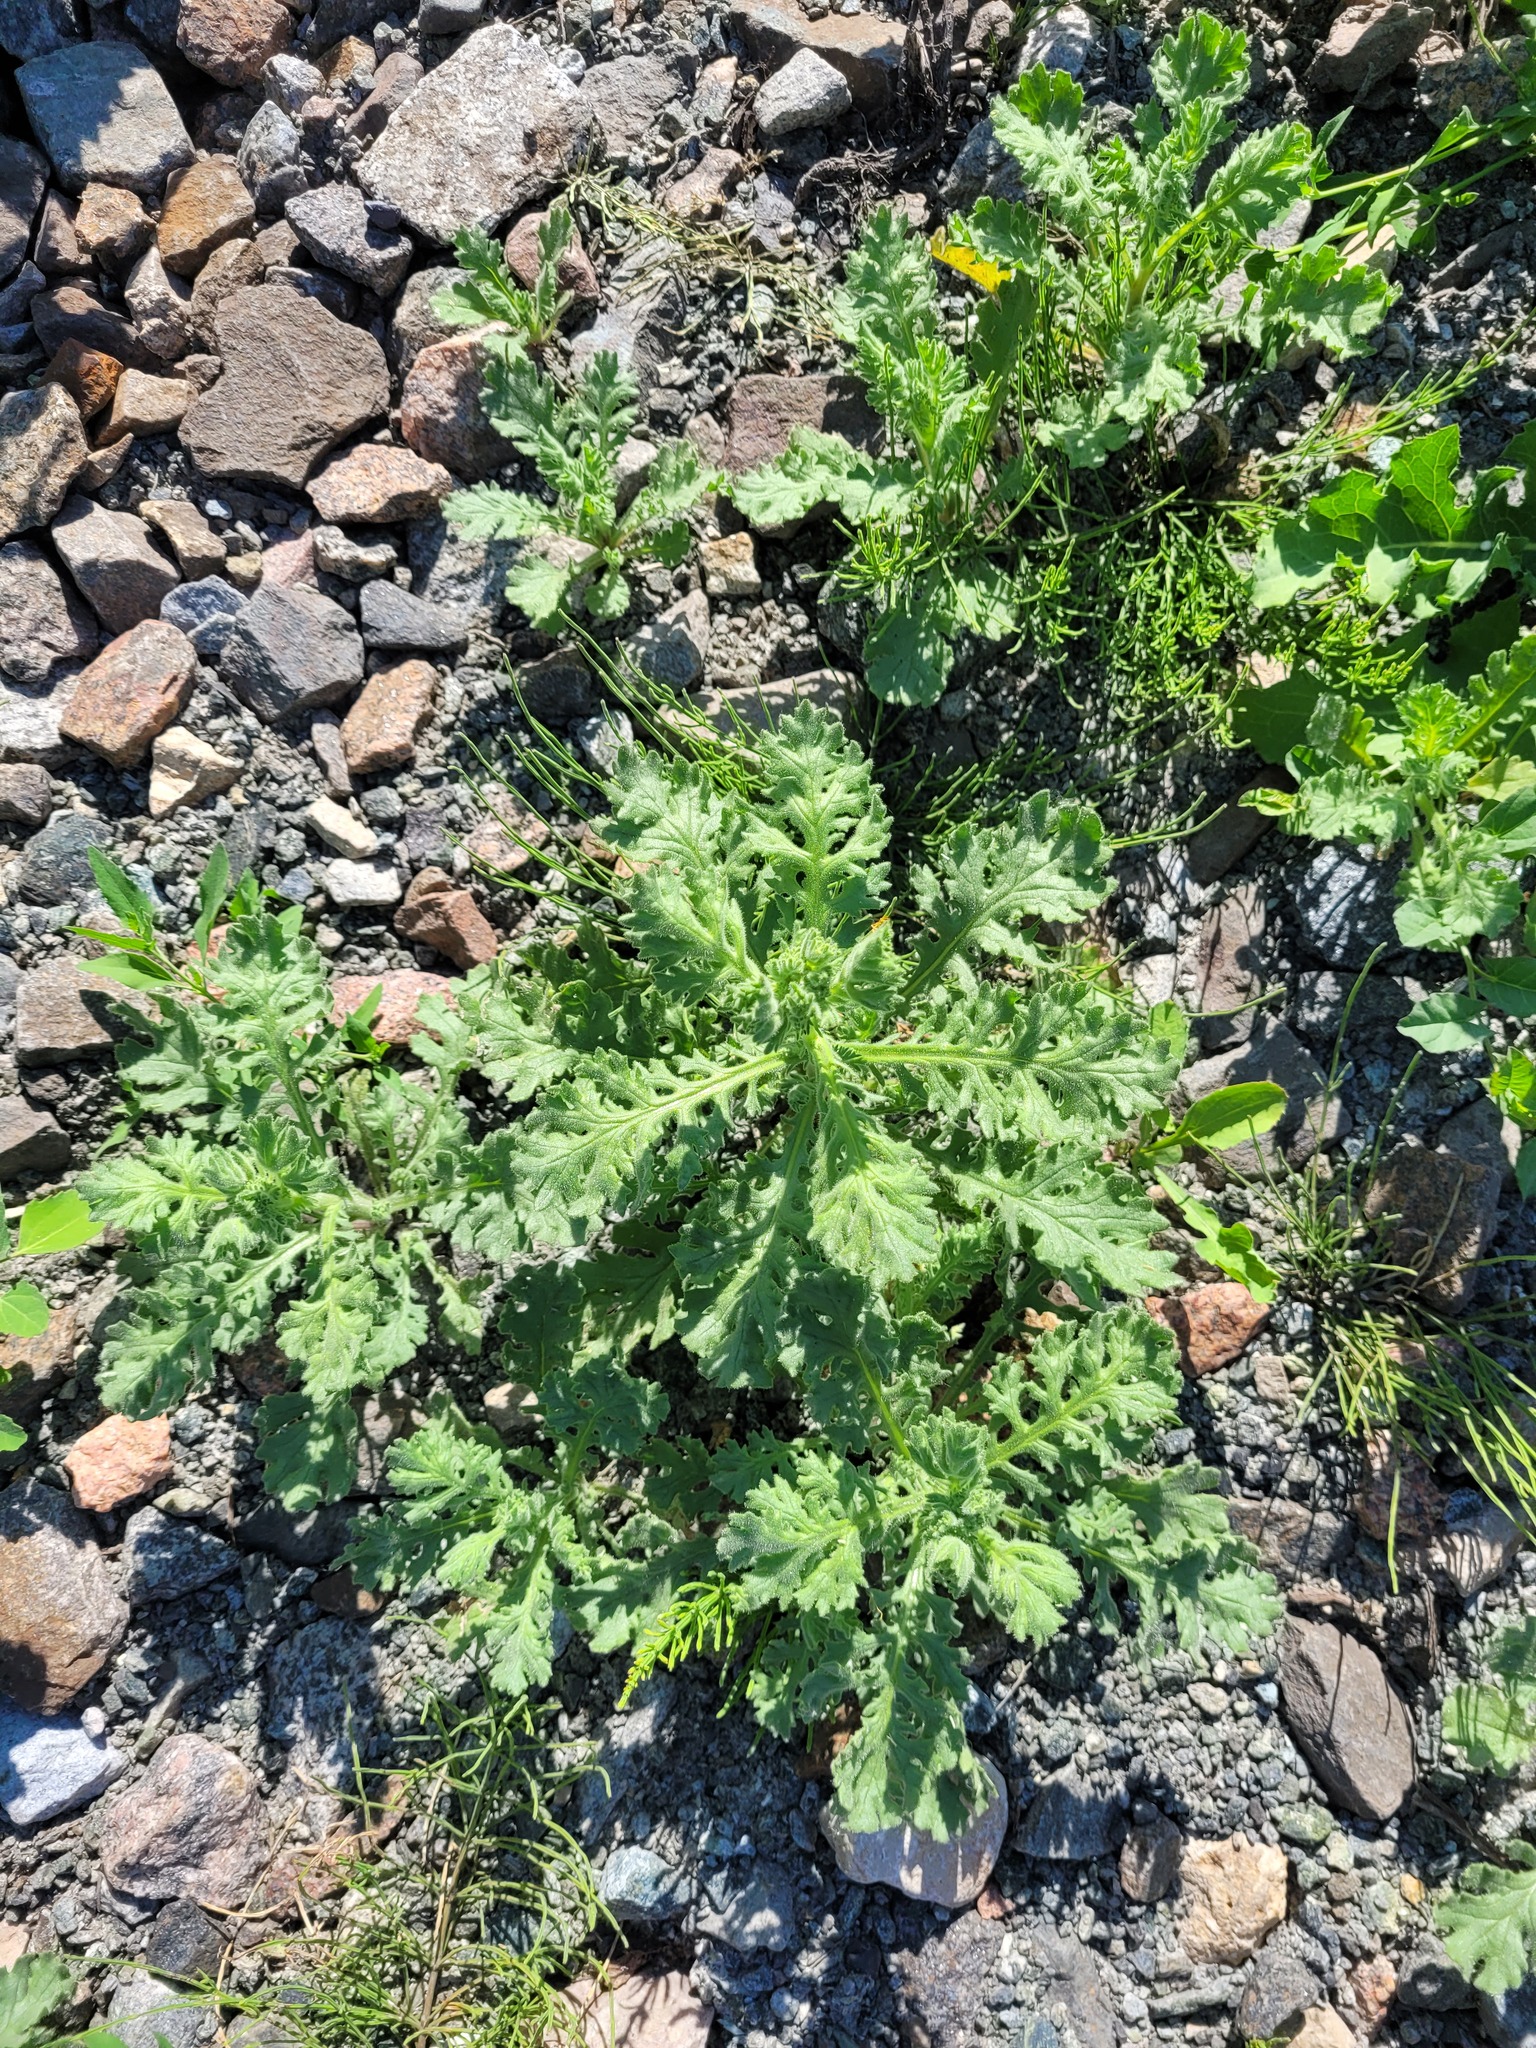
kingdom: Plantae
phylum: Tracheophyta
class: Magnoliopsida
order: Asterales
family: Asteraceae
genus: Senecio
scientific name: Senecio viscosus
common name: Sticky groundsel
